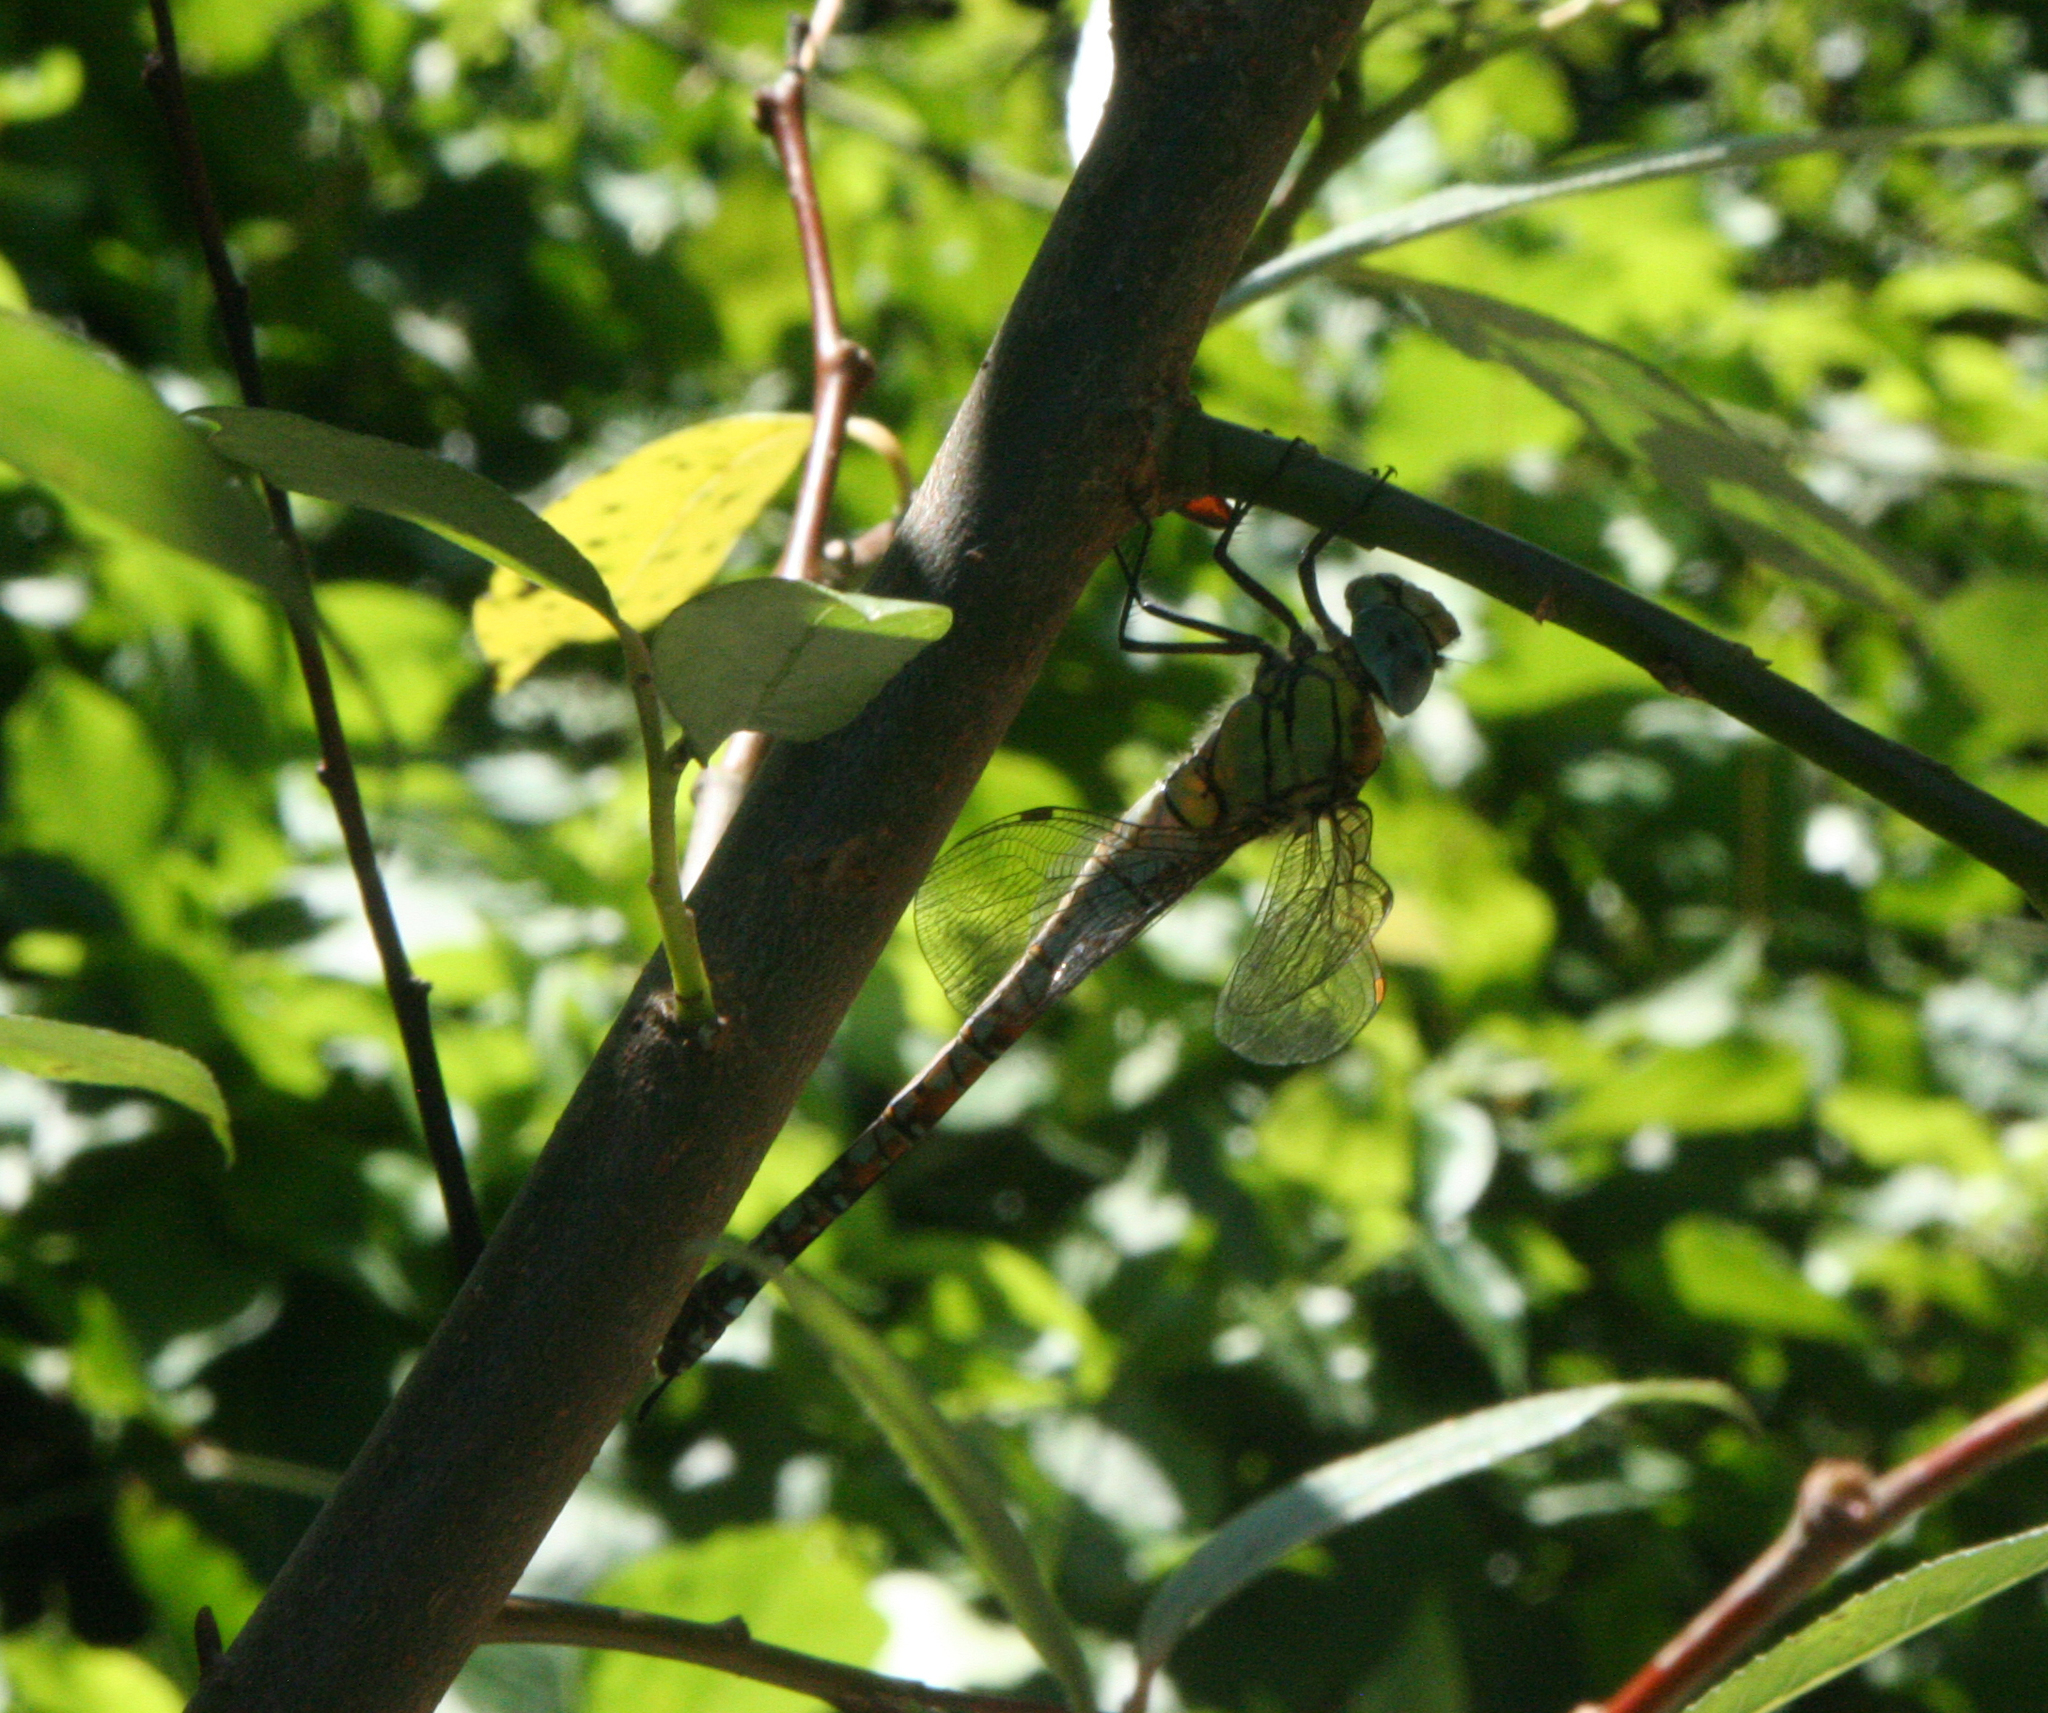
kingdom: Animalia
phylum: Arthropoda
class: Insecta
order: Odonata
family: Aeshnidae
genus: Aeshna
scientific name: Aeshna affinis
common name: Southern migrant hawker
